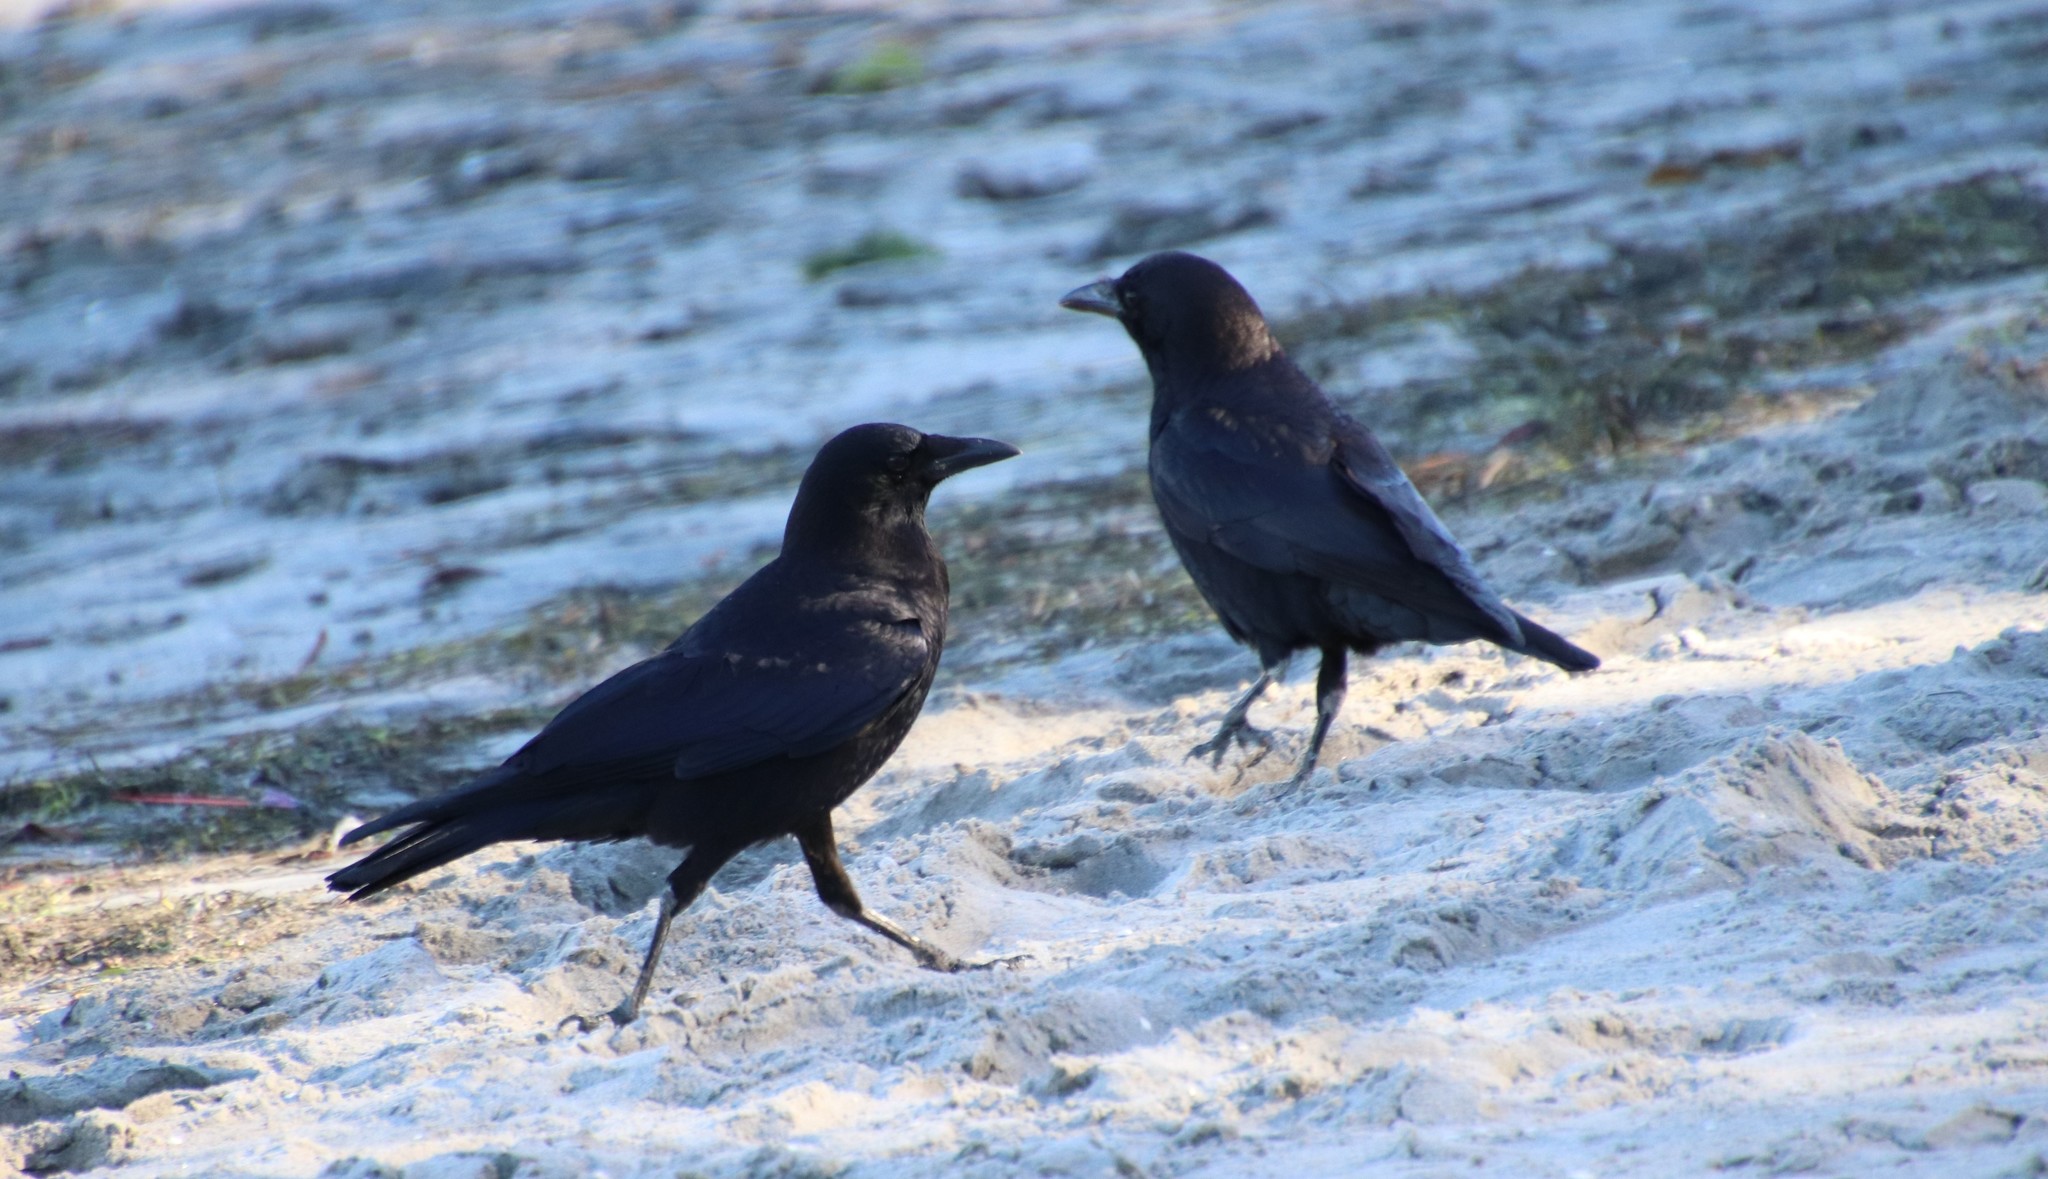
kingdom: Animalia
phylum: Chordata
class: Aves
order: Passeriformes
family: Corvidae
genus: Corvus
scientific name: Corvus brachyrhynchos
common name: American crow
